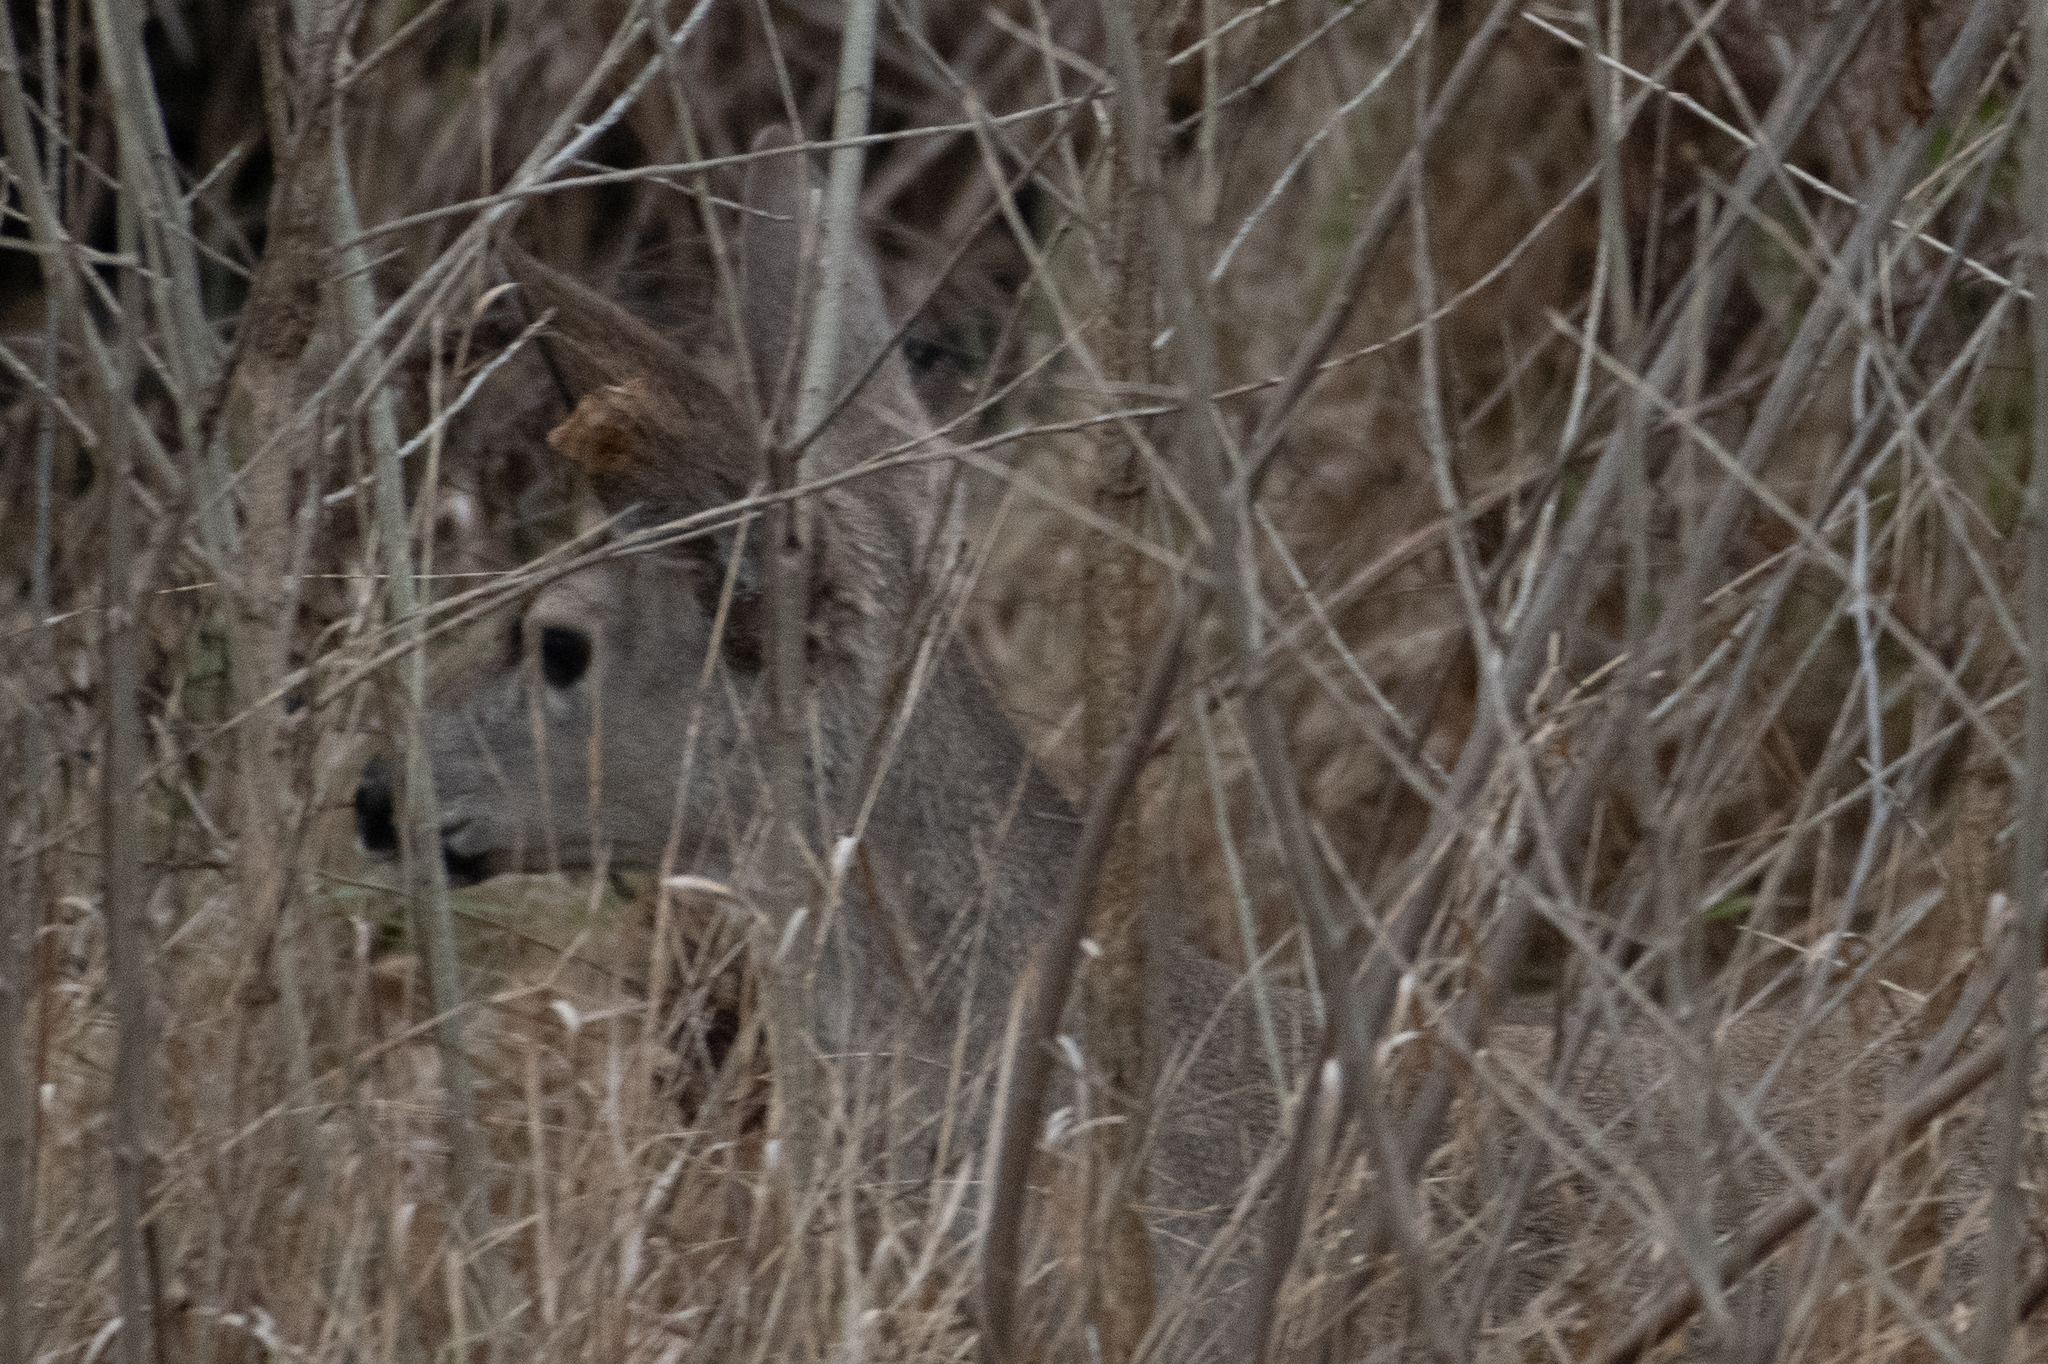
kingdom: Animalia
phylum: Chordata
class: Mammalia
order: Artiodactyla
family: Cervidae
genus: Odocoileus
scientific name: Odocoileus hemionus
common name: Mule deer
